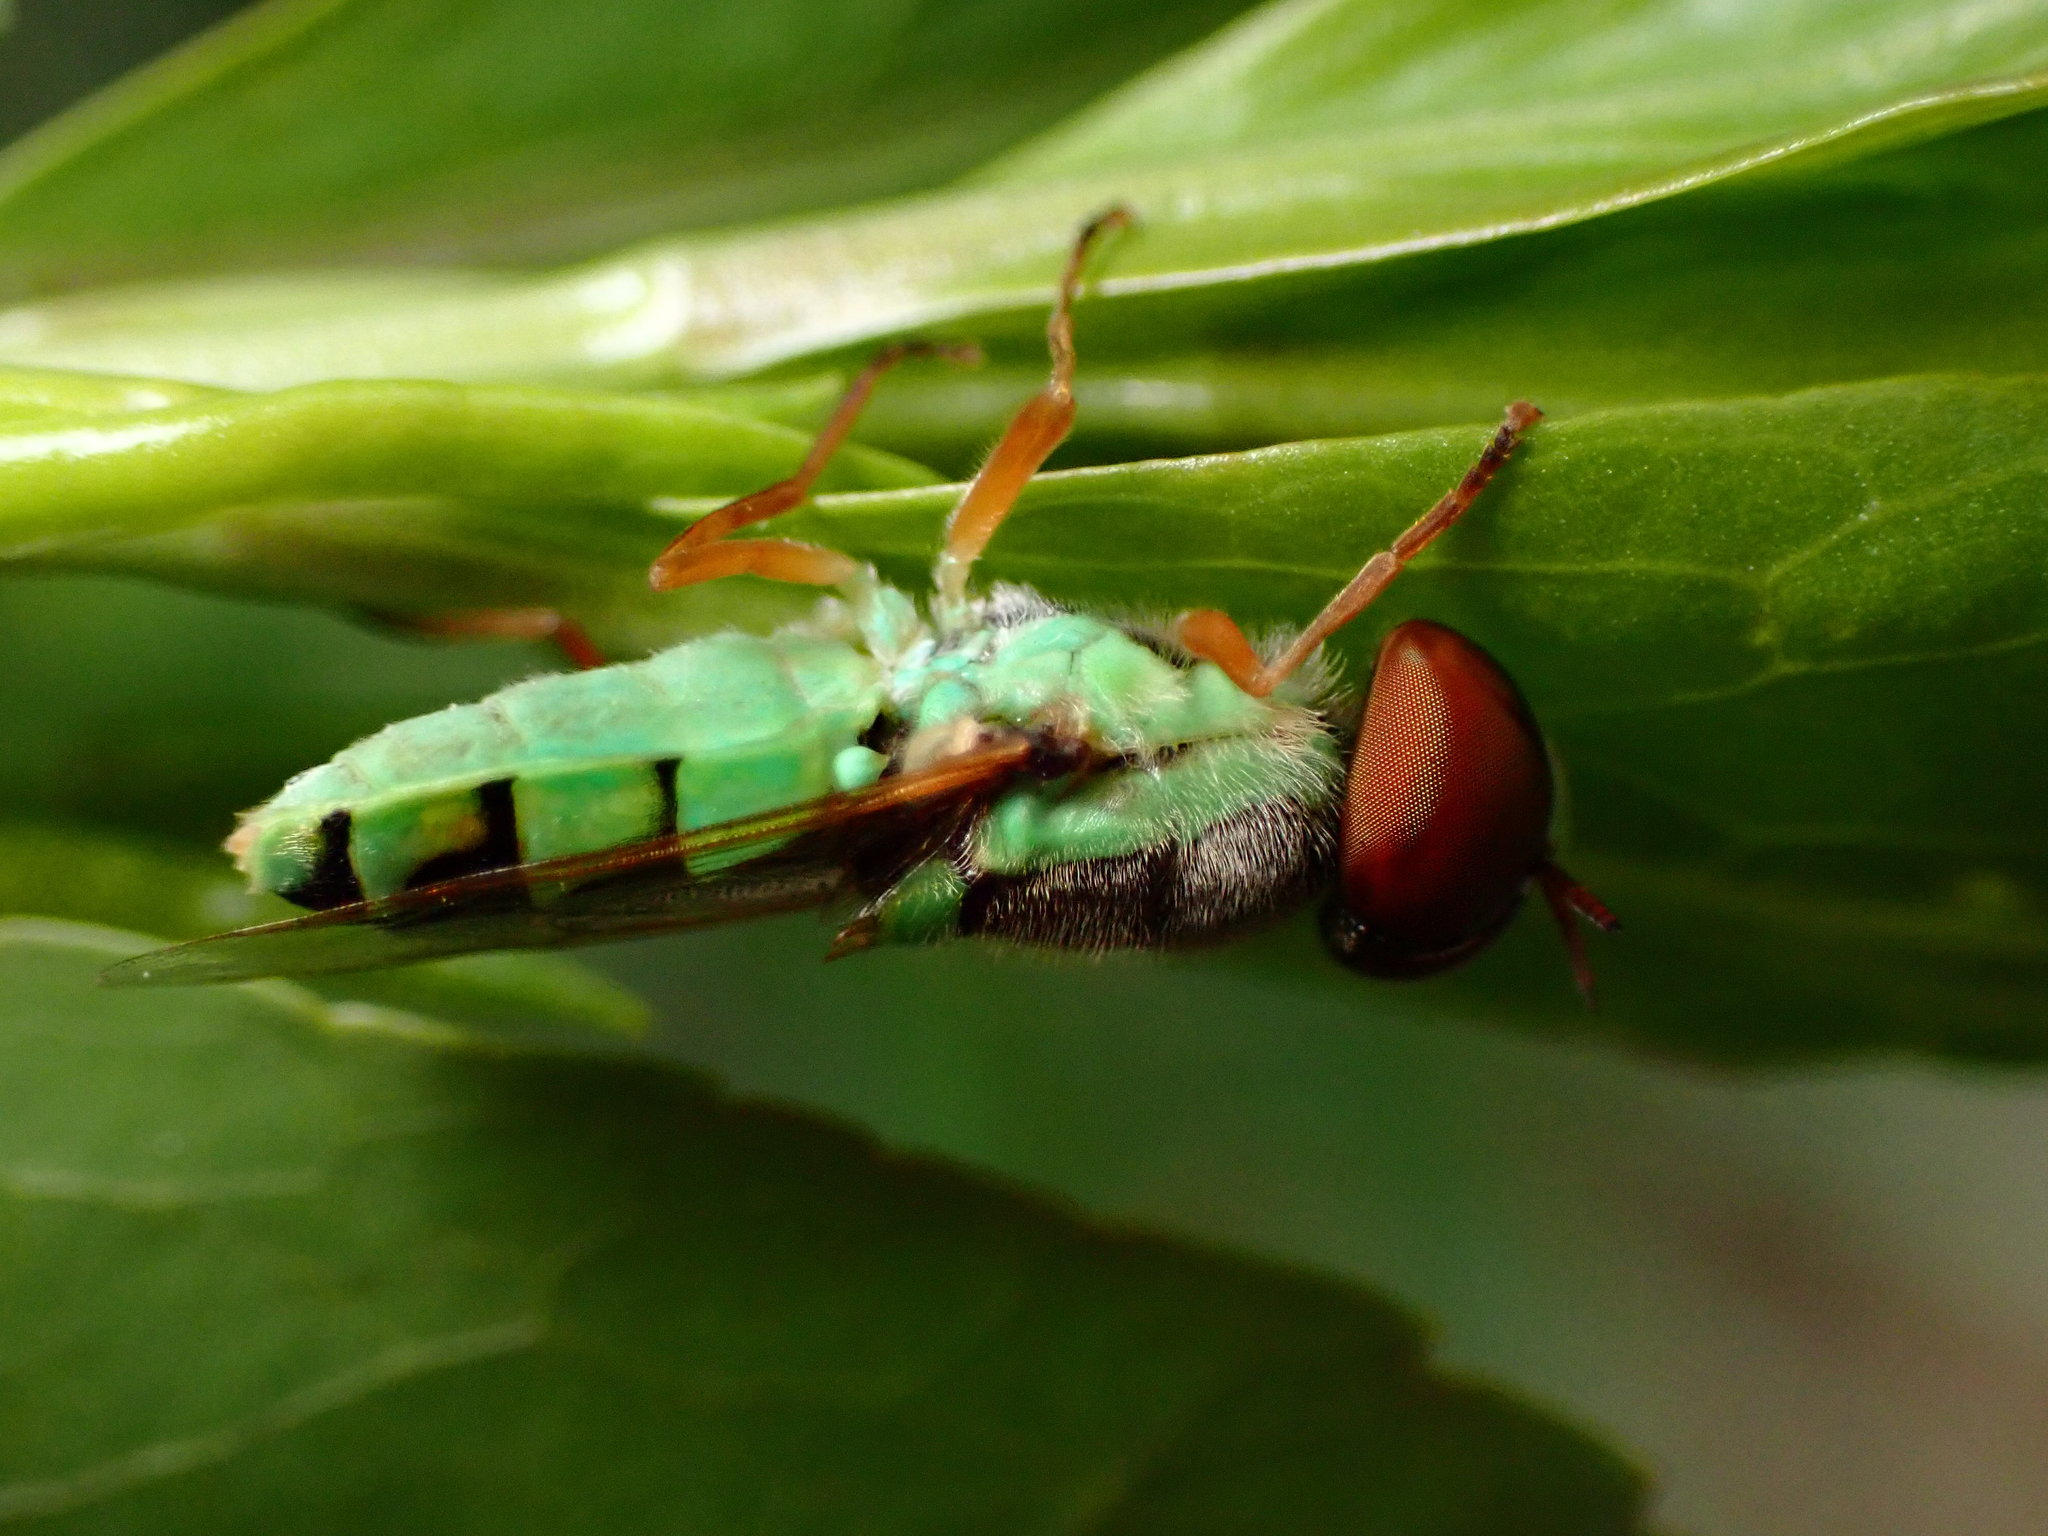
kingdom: Animalia
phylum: Arthropoda
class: Insecta
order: Diptera
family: Stratiomyidae
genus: Odontomyia
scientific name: Odontomyia cincta
